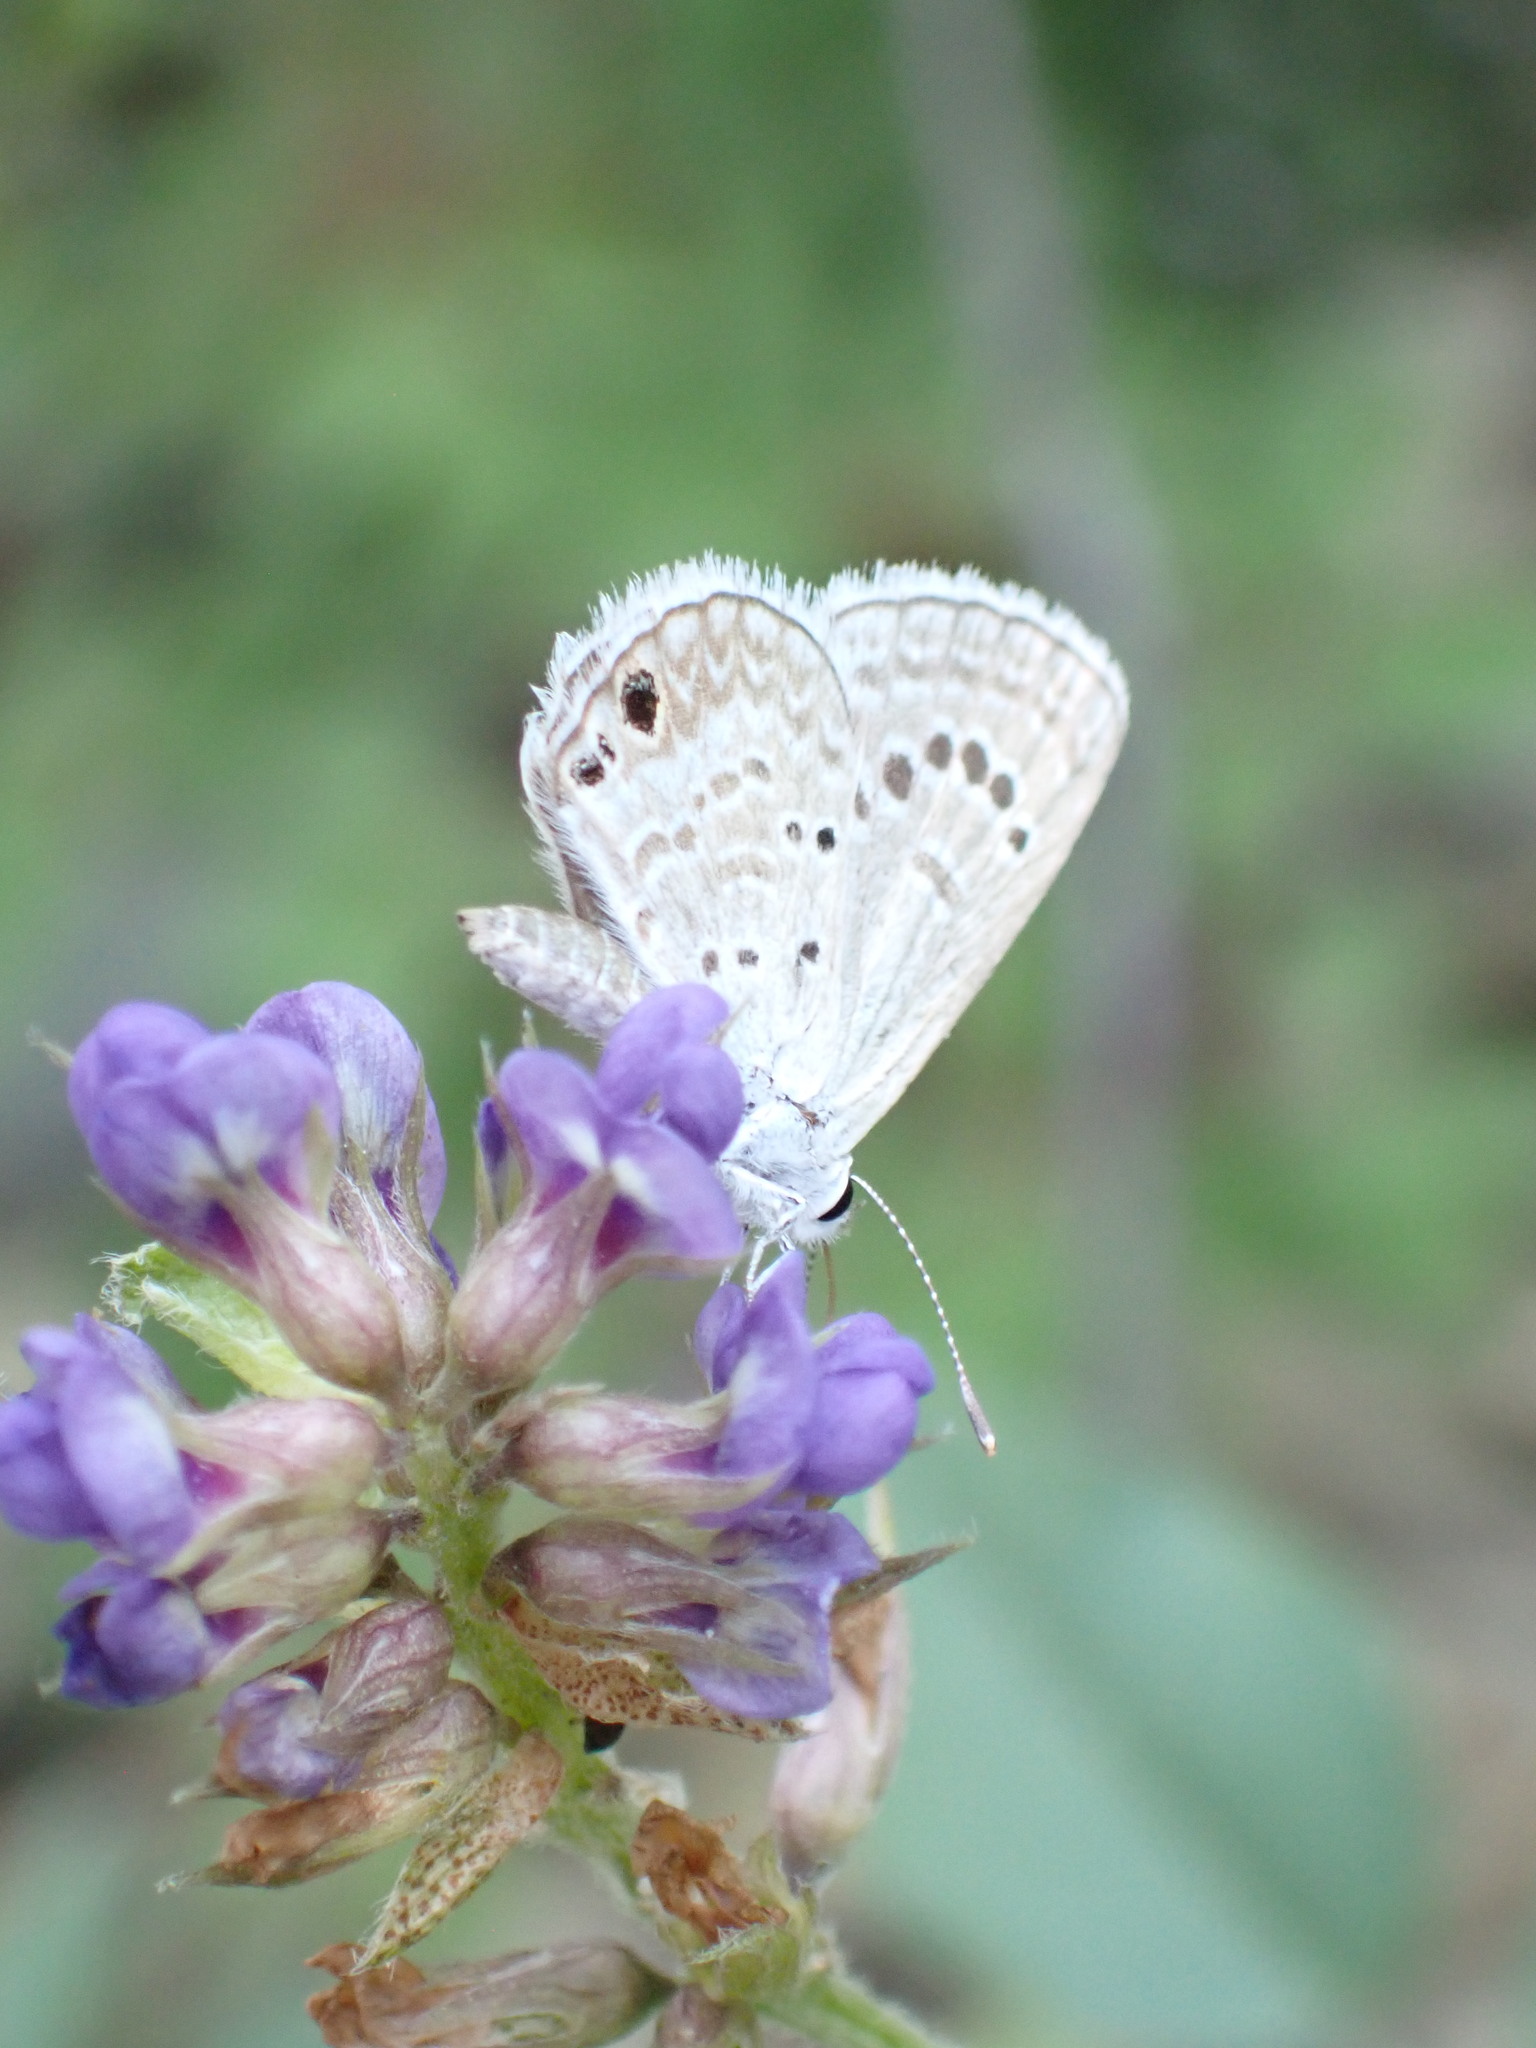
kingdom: Animalia
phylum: Arthropoda
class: Insecta
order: Lepidoptera
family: Lycaenidae
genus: Echinargus
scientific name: Echinargus isola
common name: Reakirt's blue
